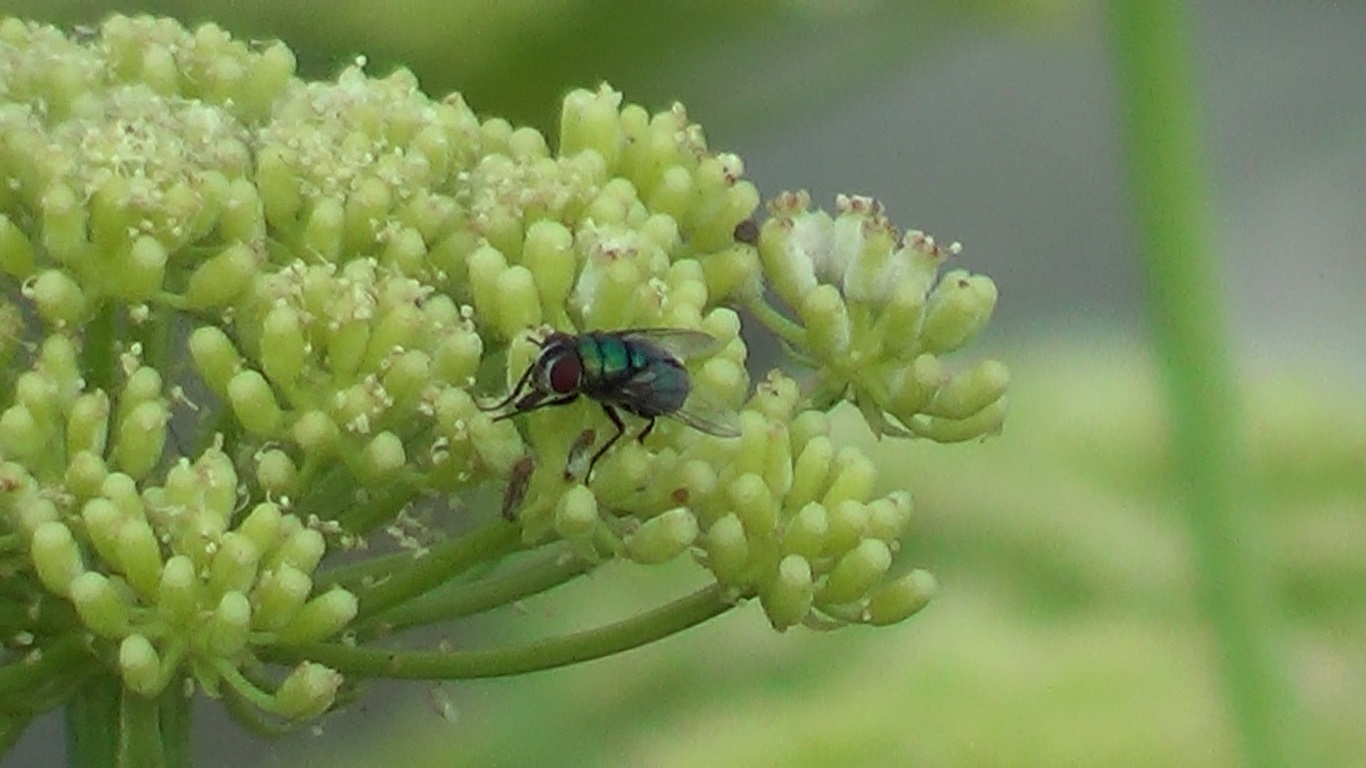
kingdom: Animalia
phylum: Arthropoda
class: Insecta
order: Diptera
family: Calliphoridae
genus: Chrysomya
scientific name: Chrysomya albiceps
